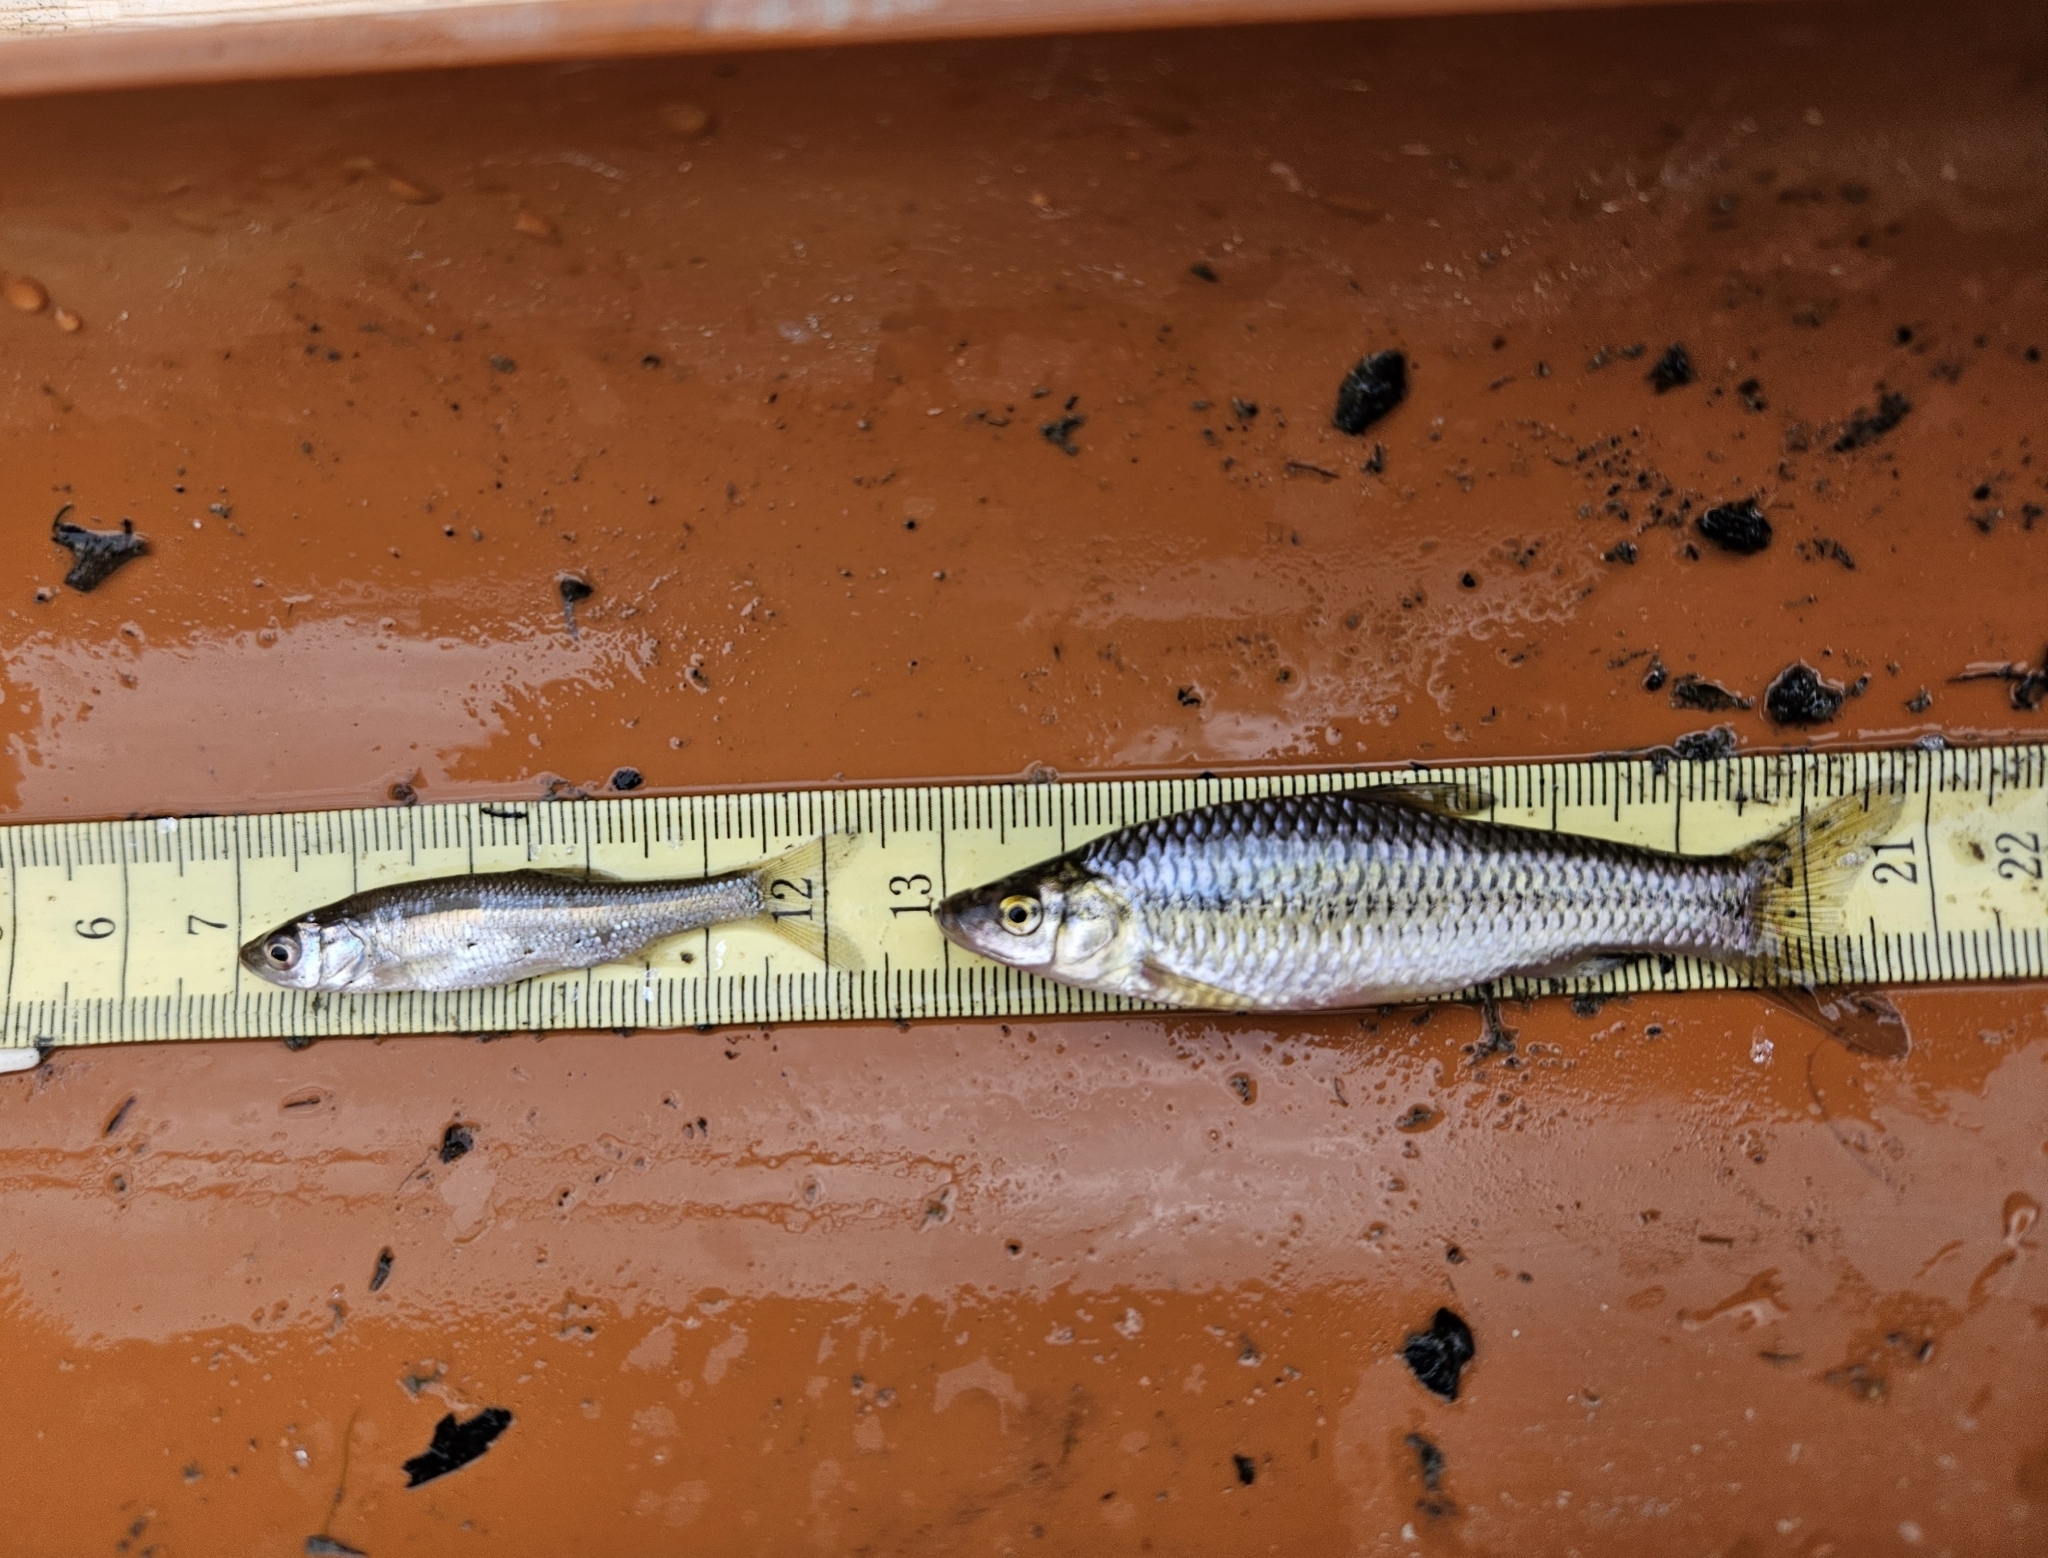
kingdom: Animalia
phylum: Chordata
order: Cypriniformes
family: Cyprinidae
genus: Pseudorasbora
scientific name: Pseudorasbora parva
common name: Topmouth gudgeon
